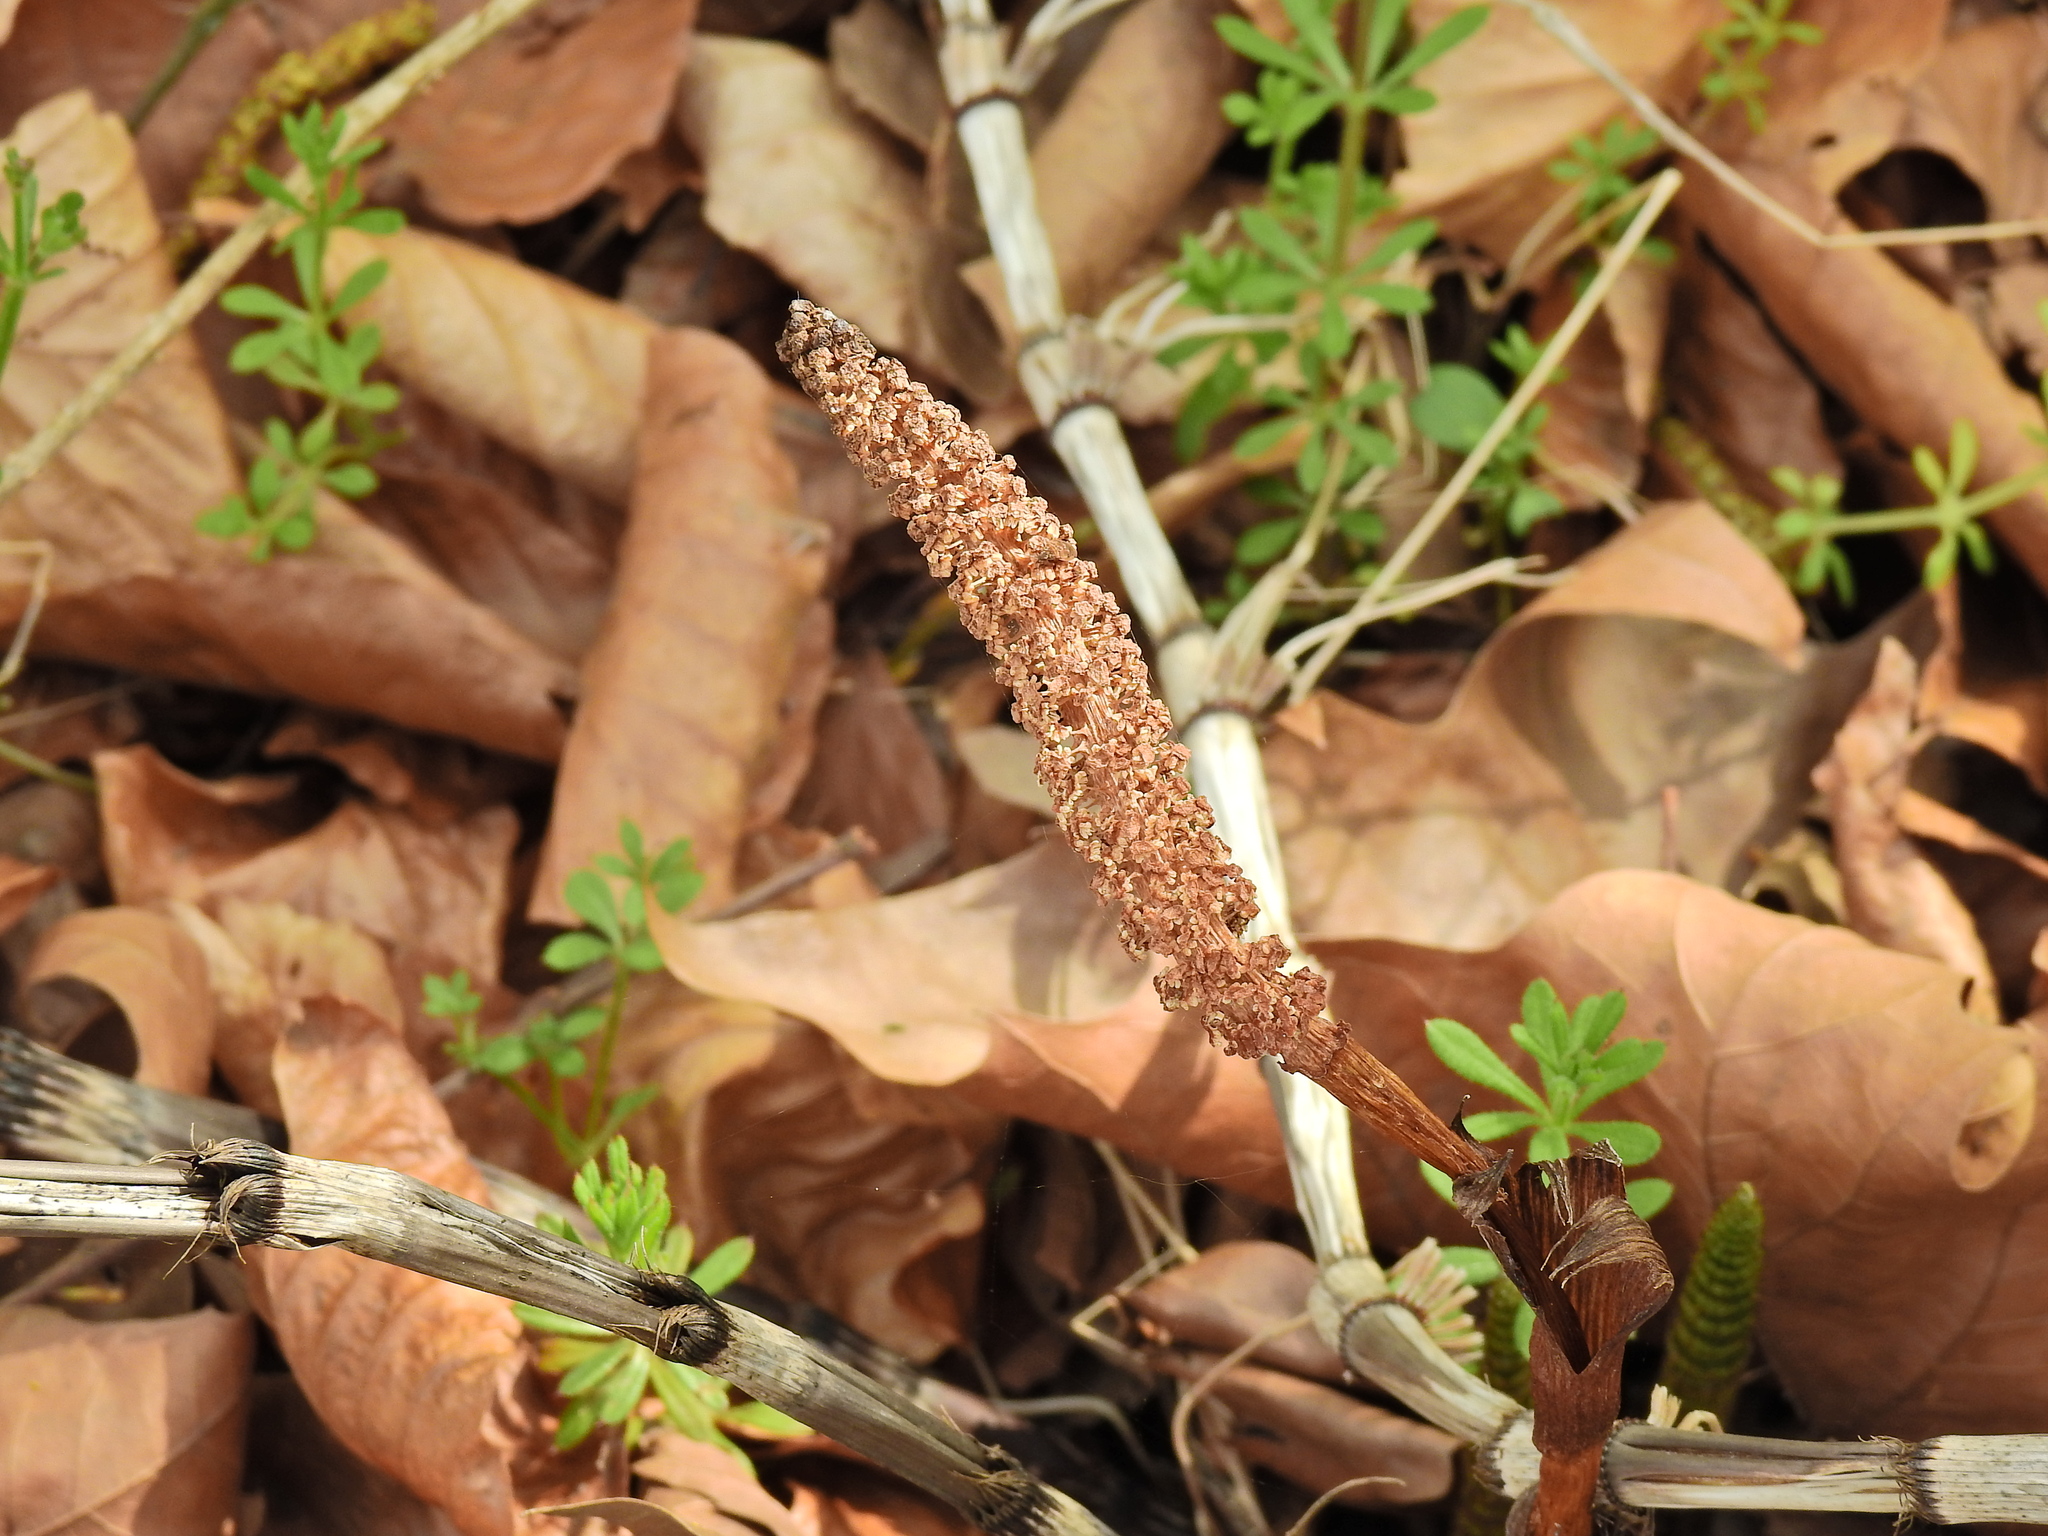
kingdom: Plantae
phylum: Tracheophyta
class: Polypodiopsida
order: Equisetales
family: Equisetaceae
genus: Equisetum
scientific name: Equisetum telmateia
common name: Great horsetail
